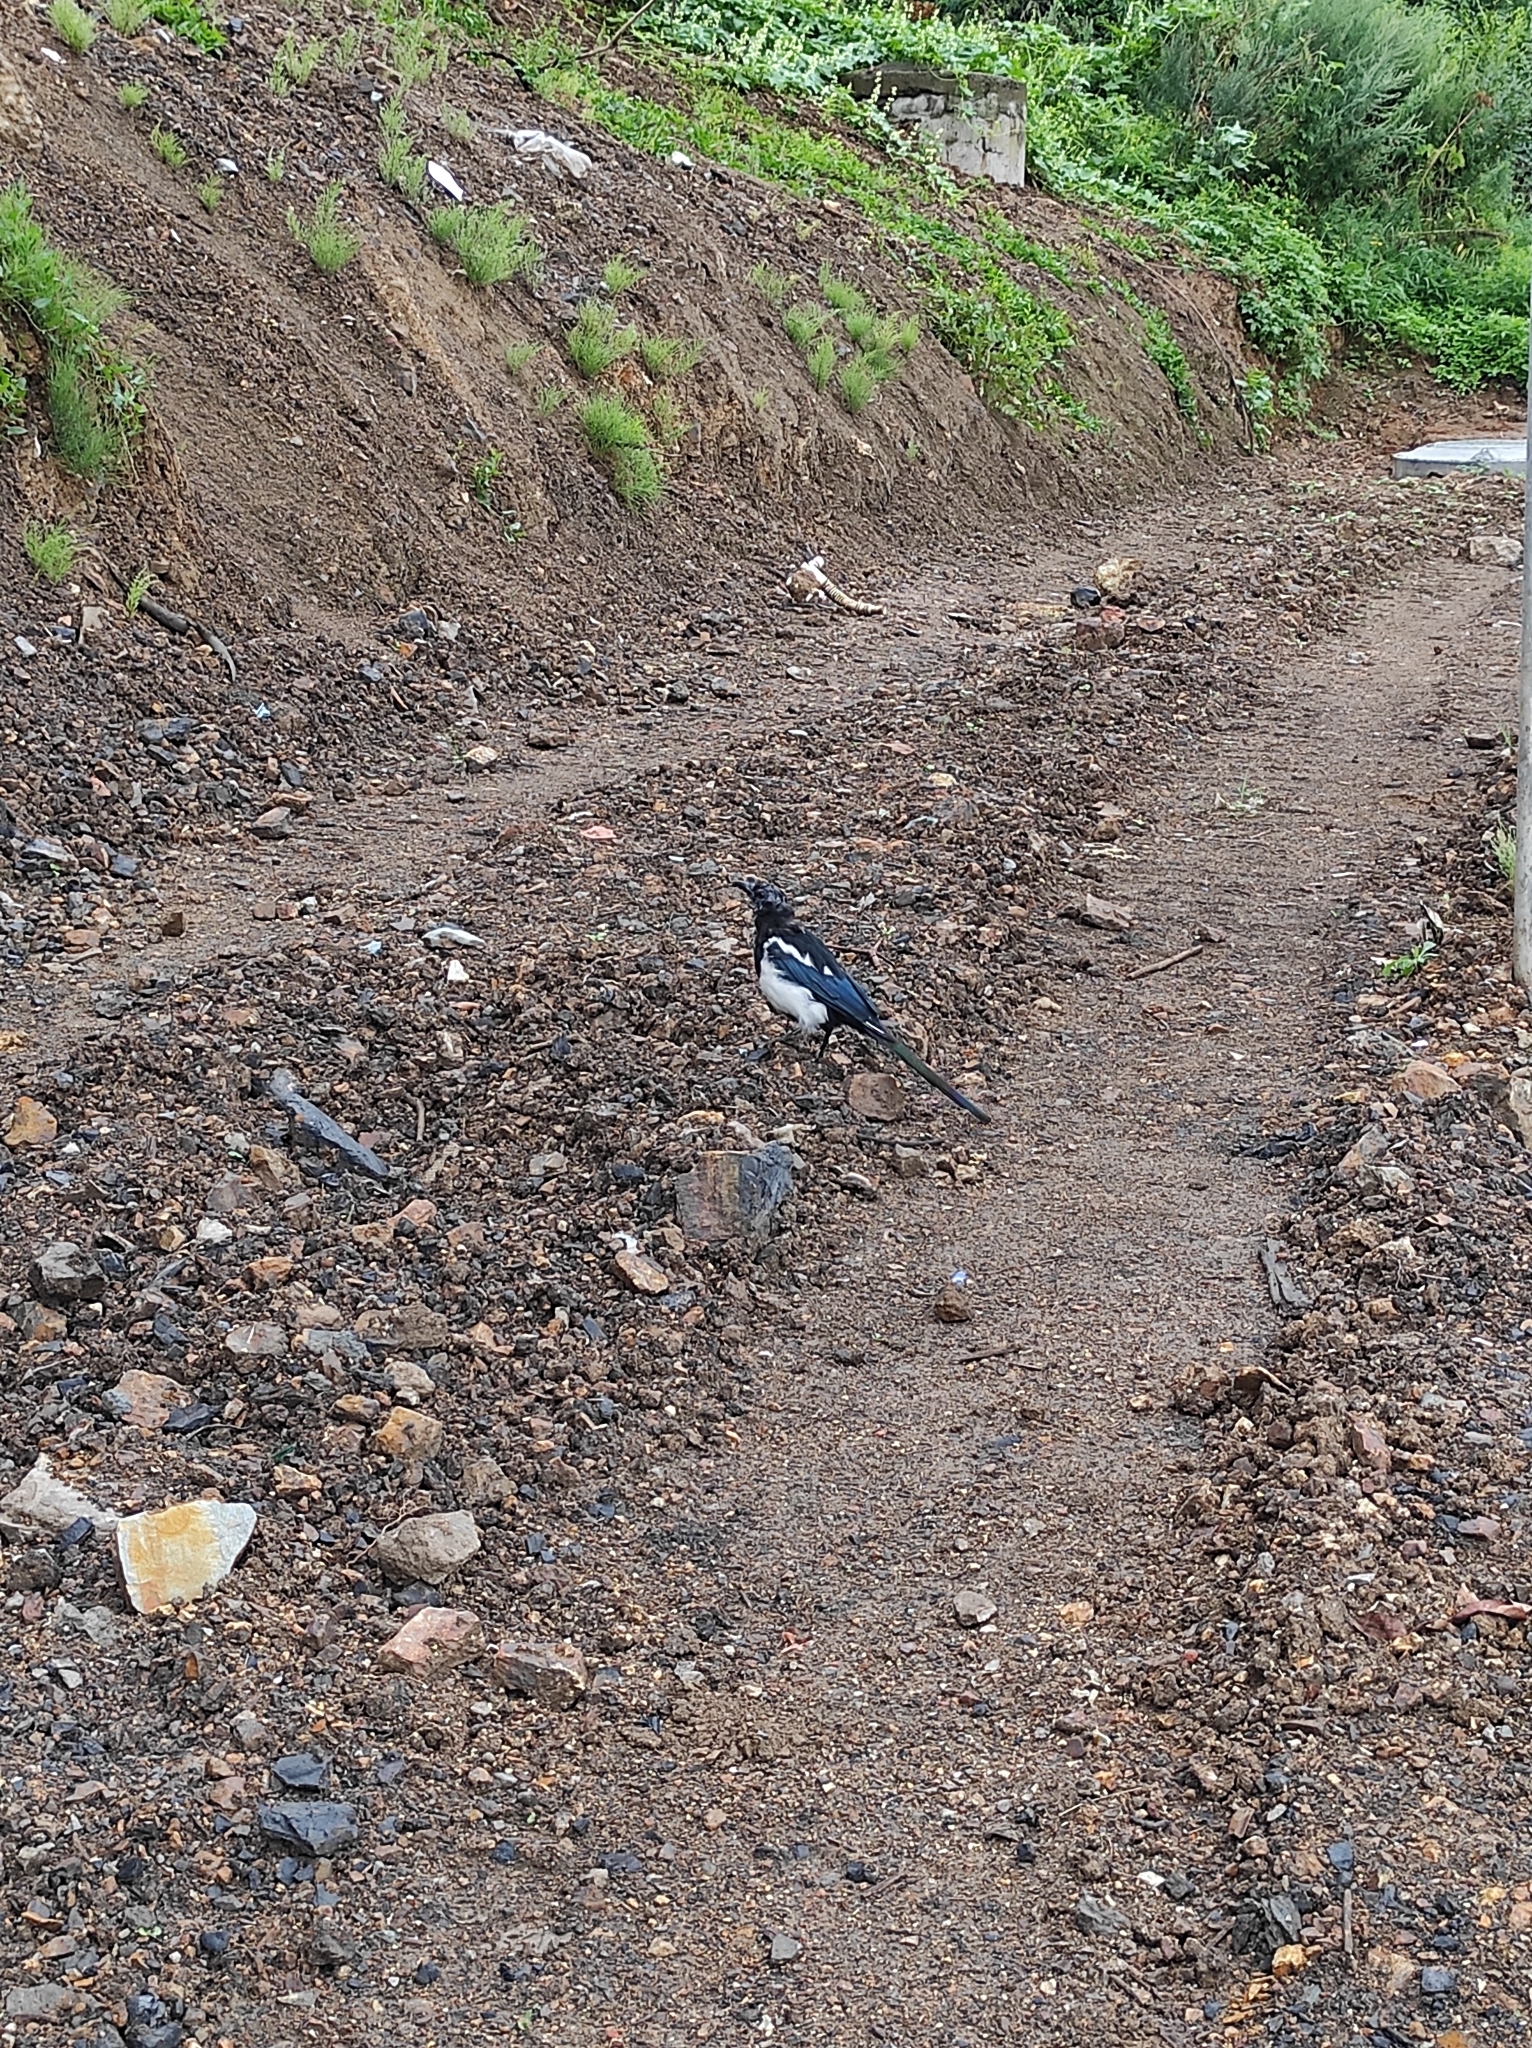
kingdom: Animalia
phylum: Chordata
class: Aves
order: Passeriformes
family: Corvidae
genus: Pica
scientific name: Pica serica
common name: Oriental magpie
